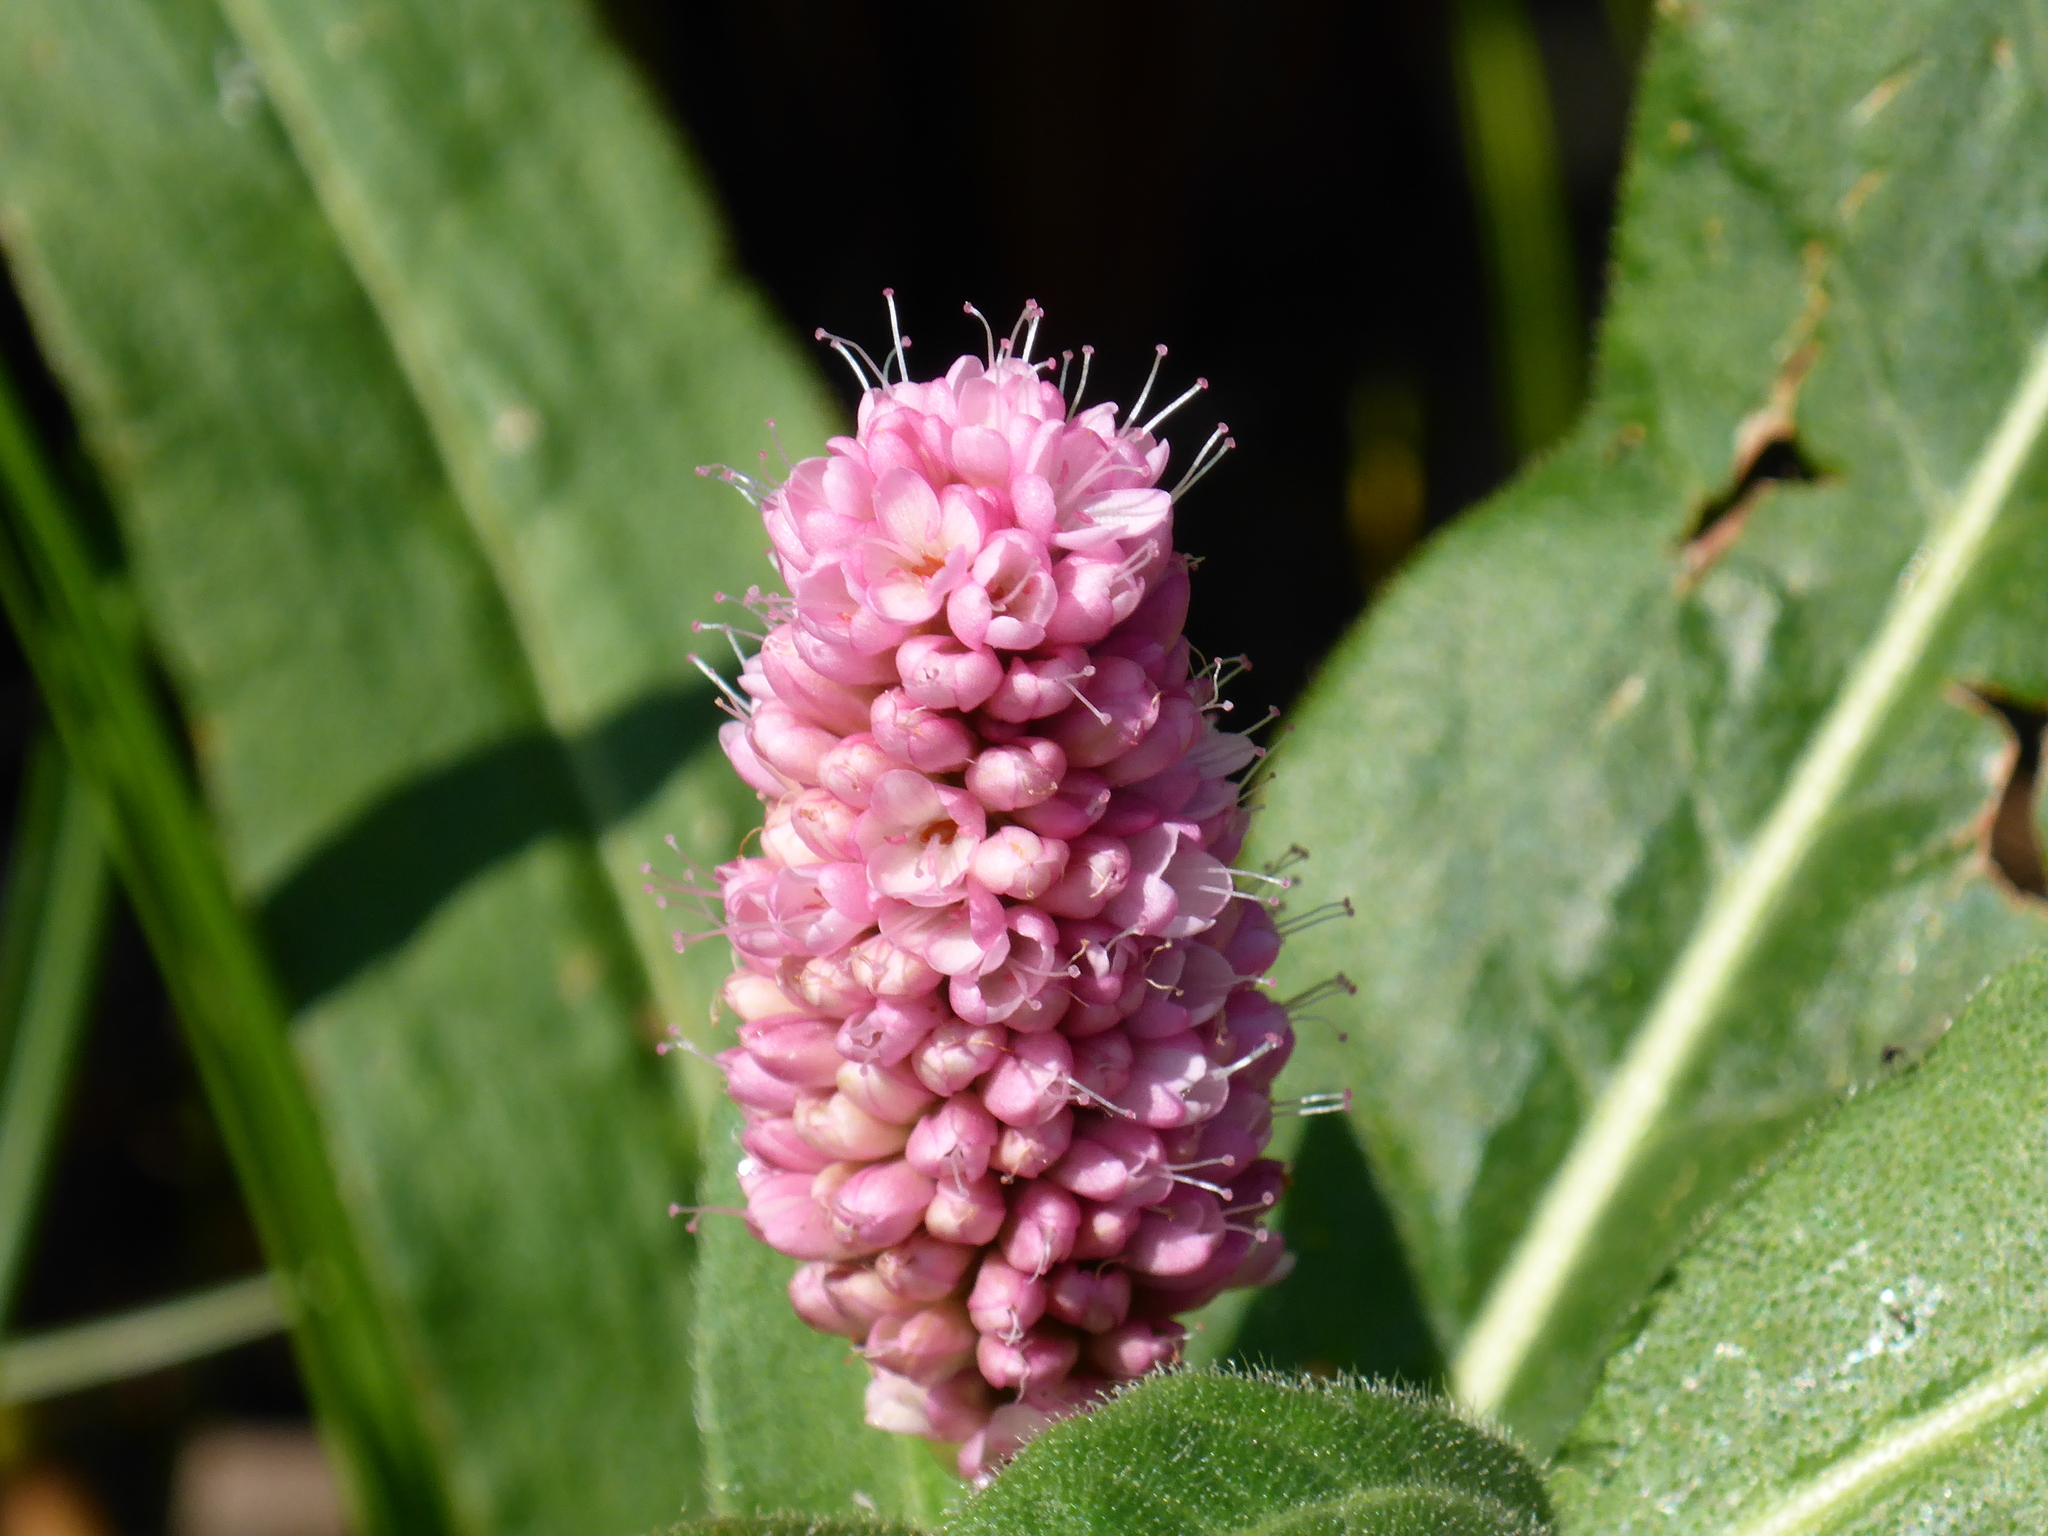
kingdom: Plantae
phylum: Tracheophyta
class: Magnoliopsida
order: Caryophyllales
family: Polygonaceae
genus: Persicaria
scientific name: Persicaria amphibia
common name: Amphibious bistort
